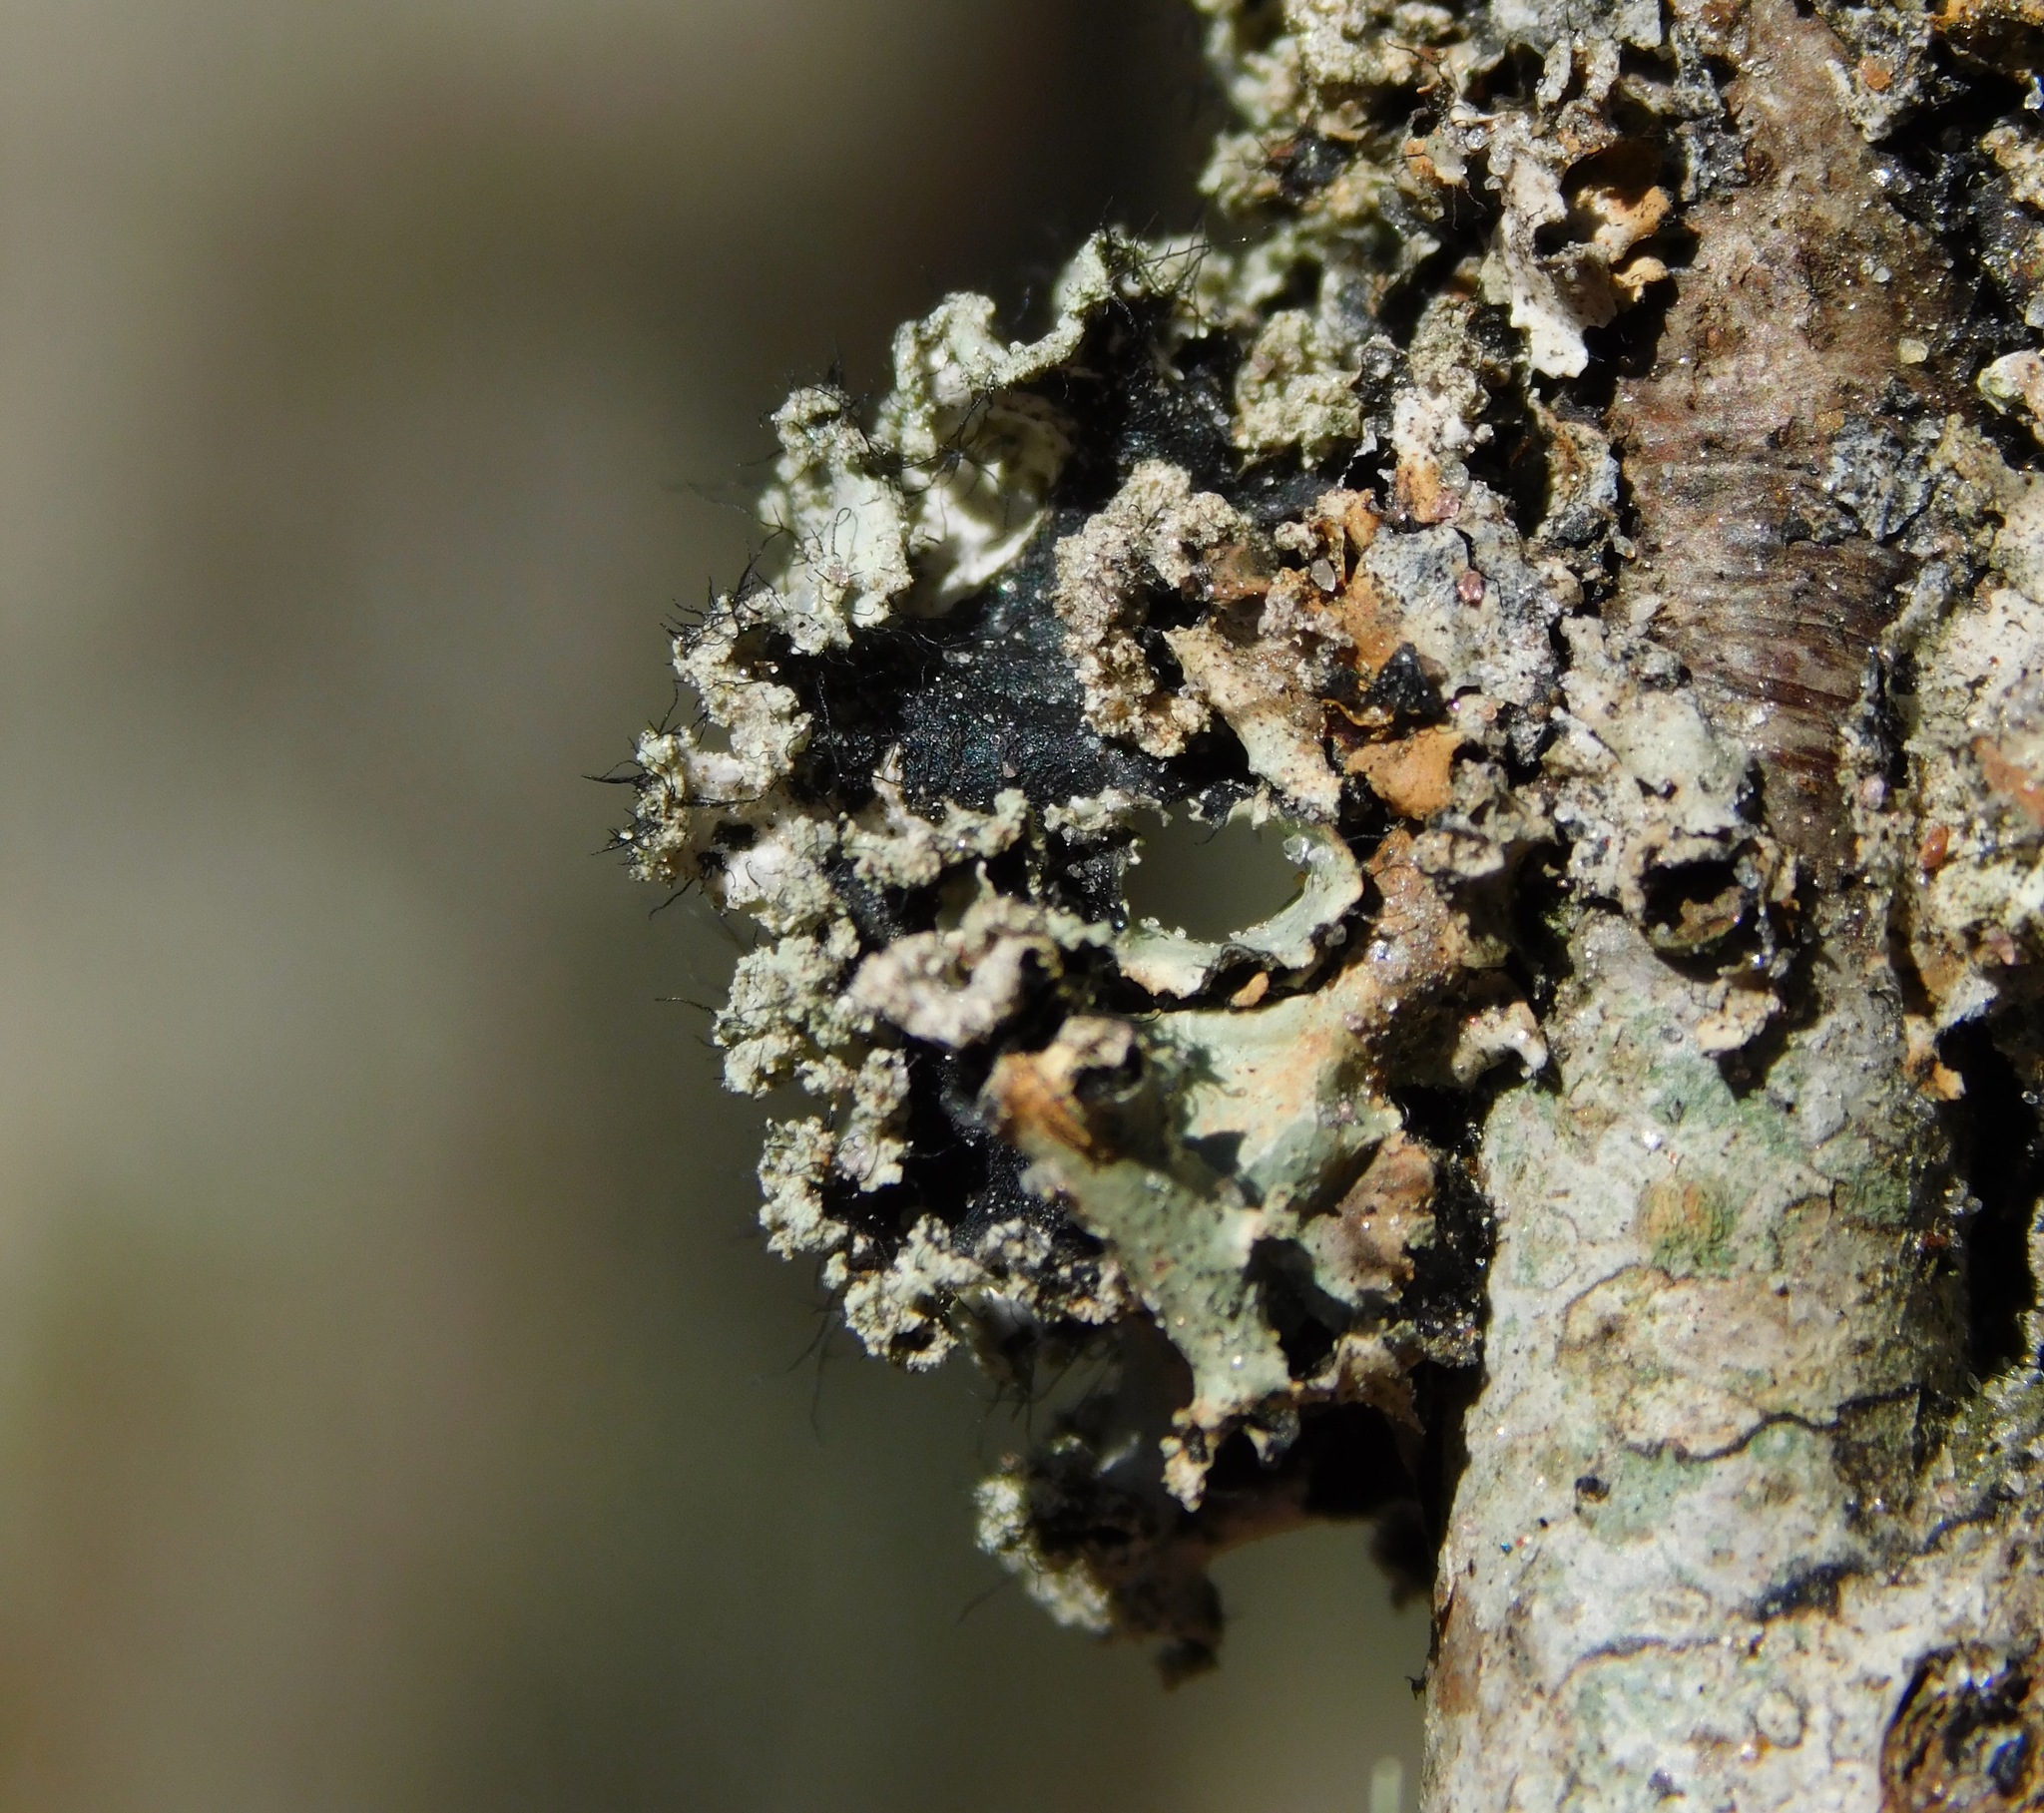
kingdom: Fungi
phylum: Ascomycota
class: Lecanoromycetes
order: Lecanorales
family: Parmeliaceae
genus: Hypotrachyna
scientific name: Hypotrachyna horrescens
